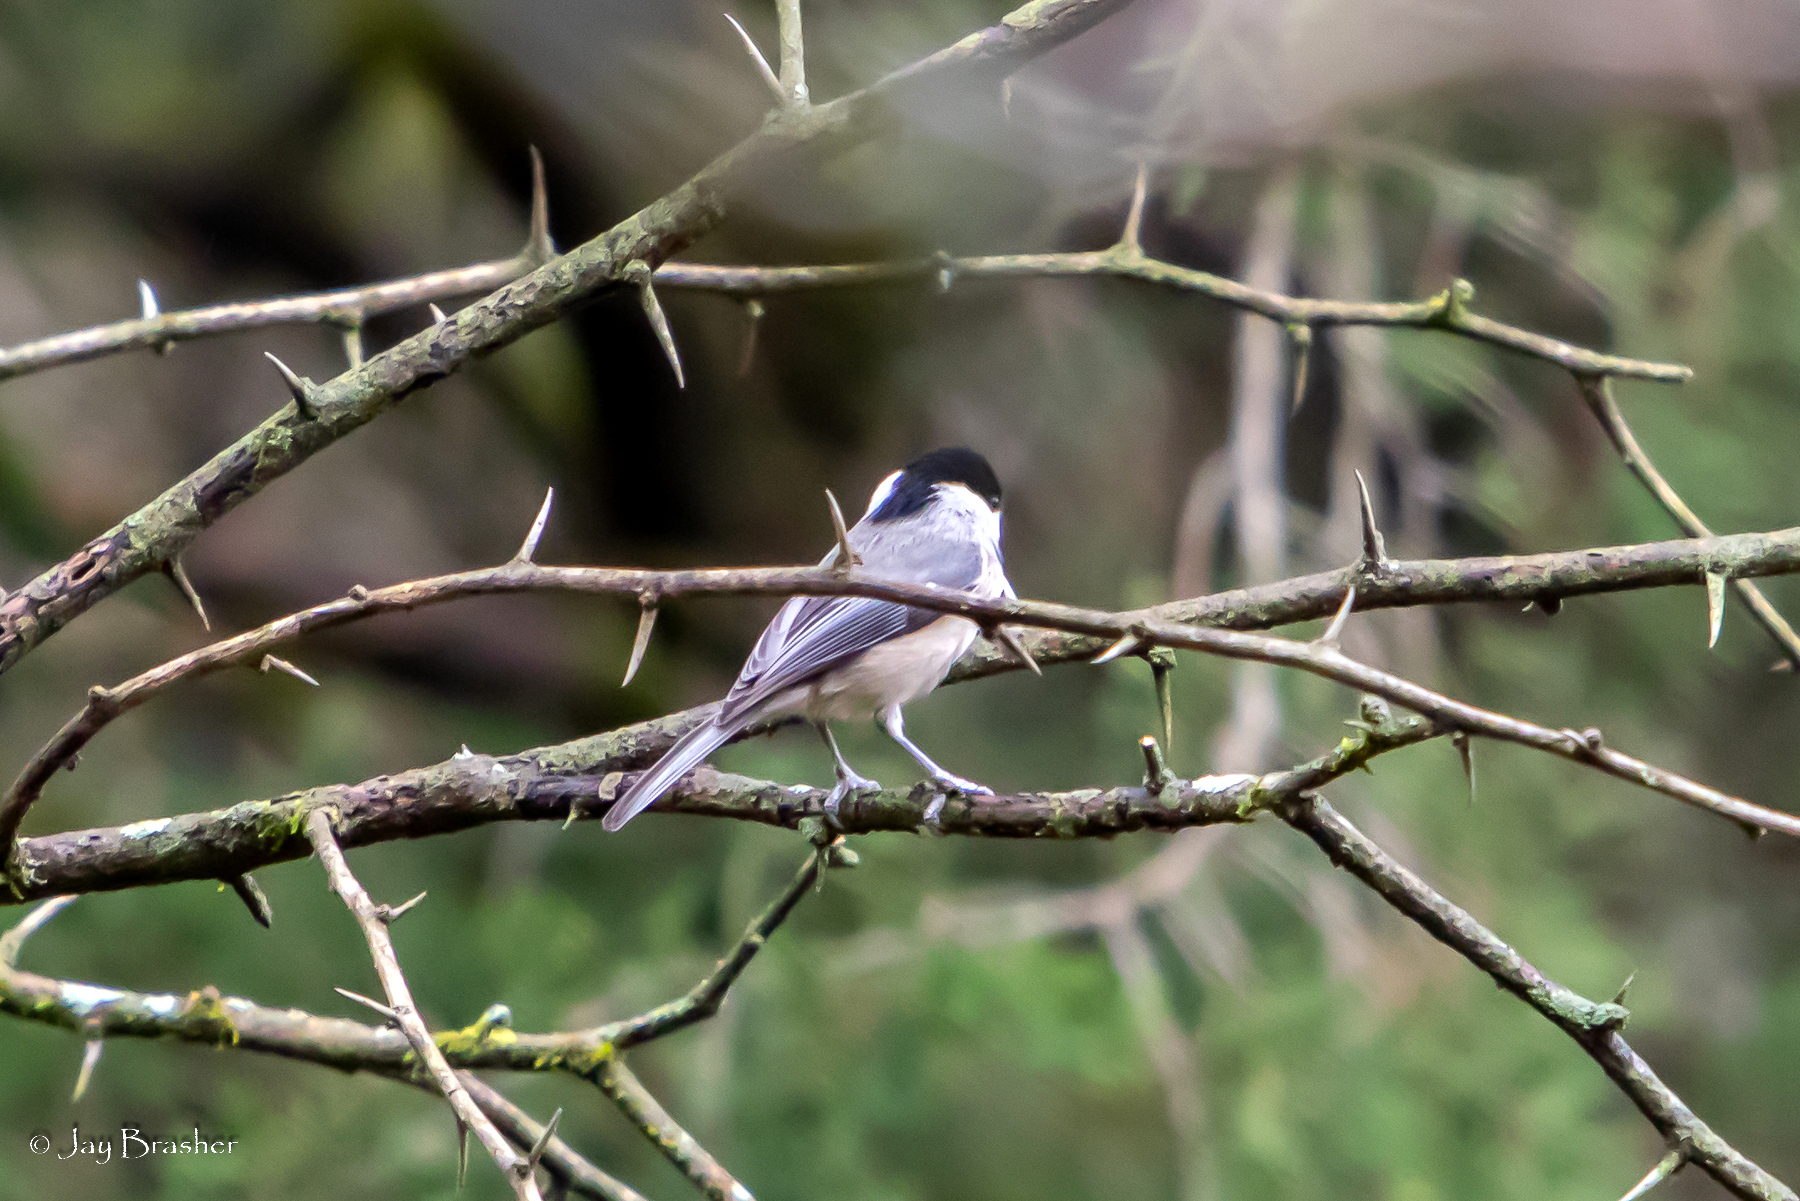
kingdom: Animalia
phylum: Chordata
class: Aves
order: Passeriformes
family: Paridae
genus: Poecile
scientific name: Poecile carolinensis
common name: Carolina chickadee
